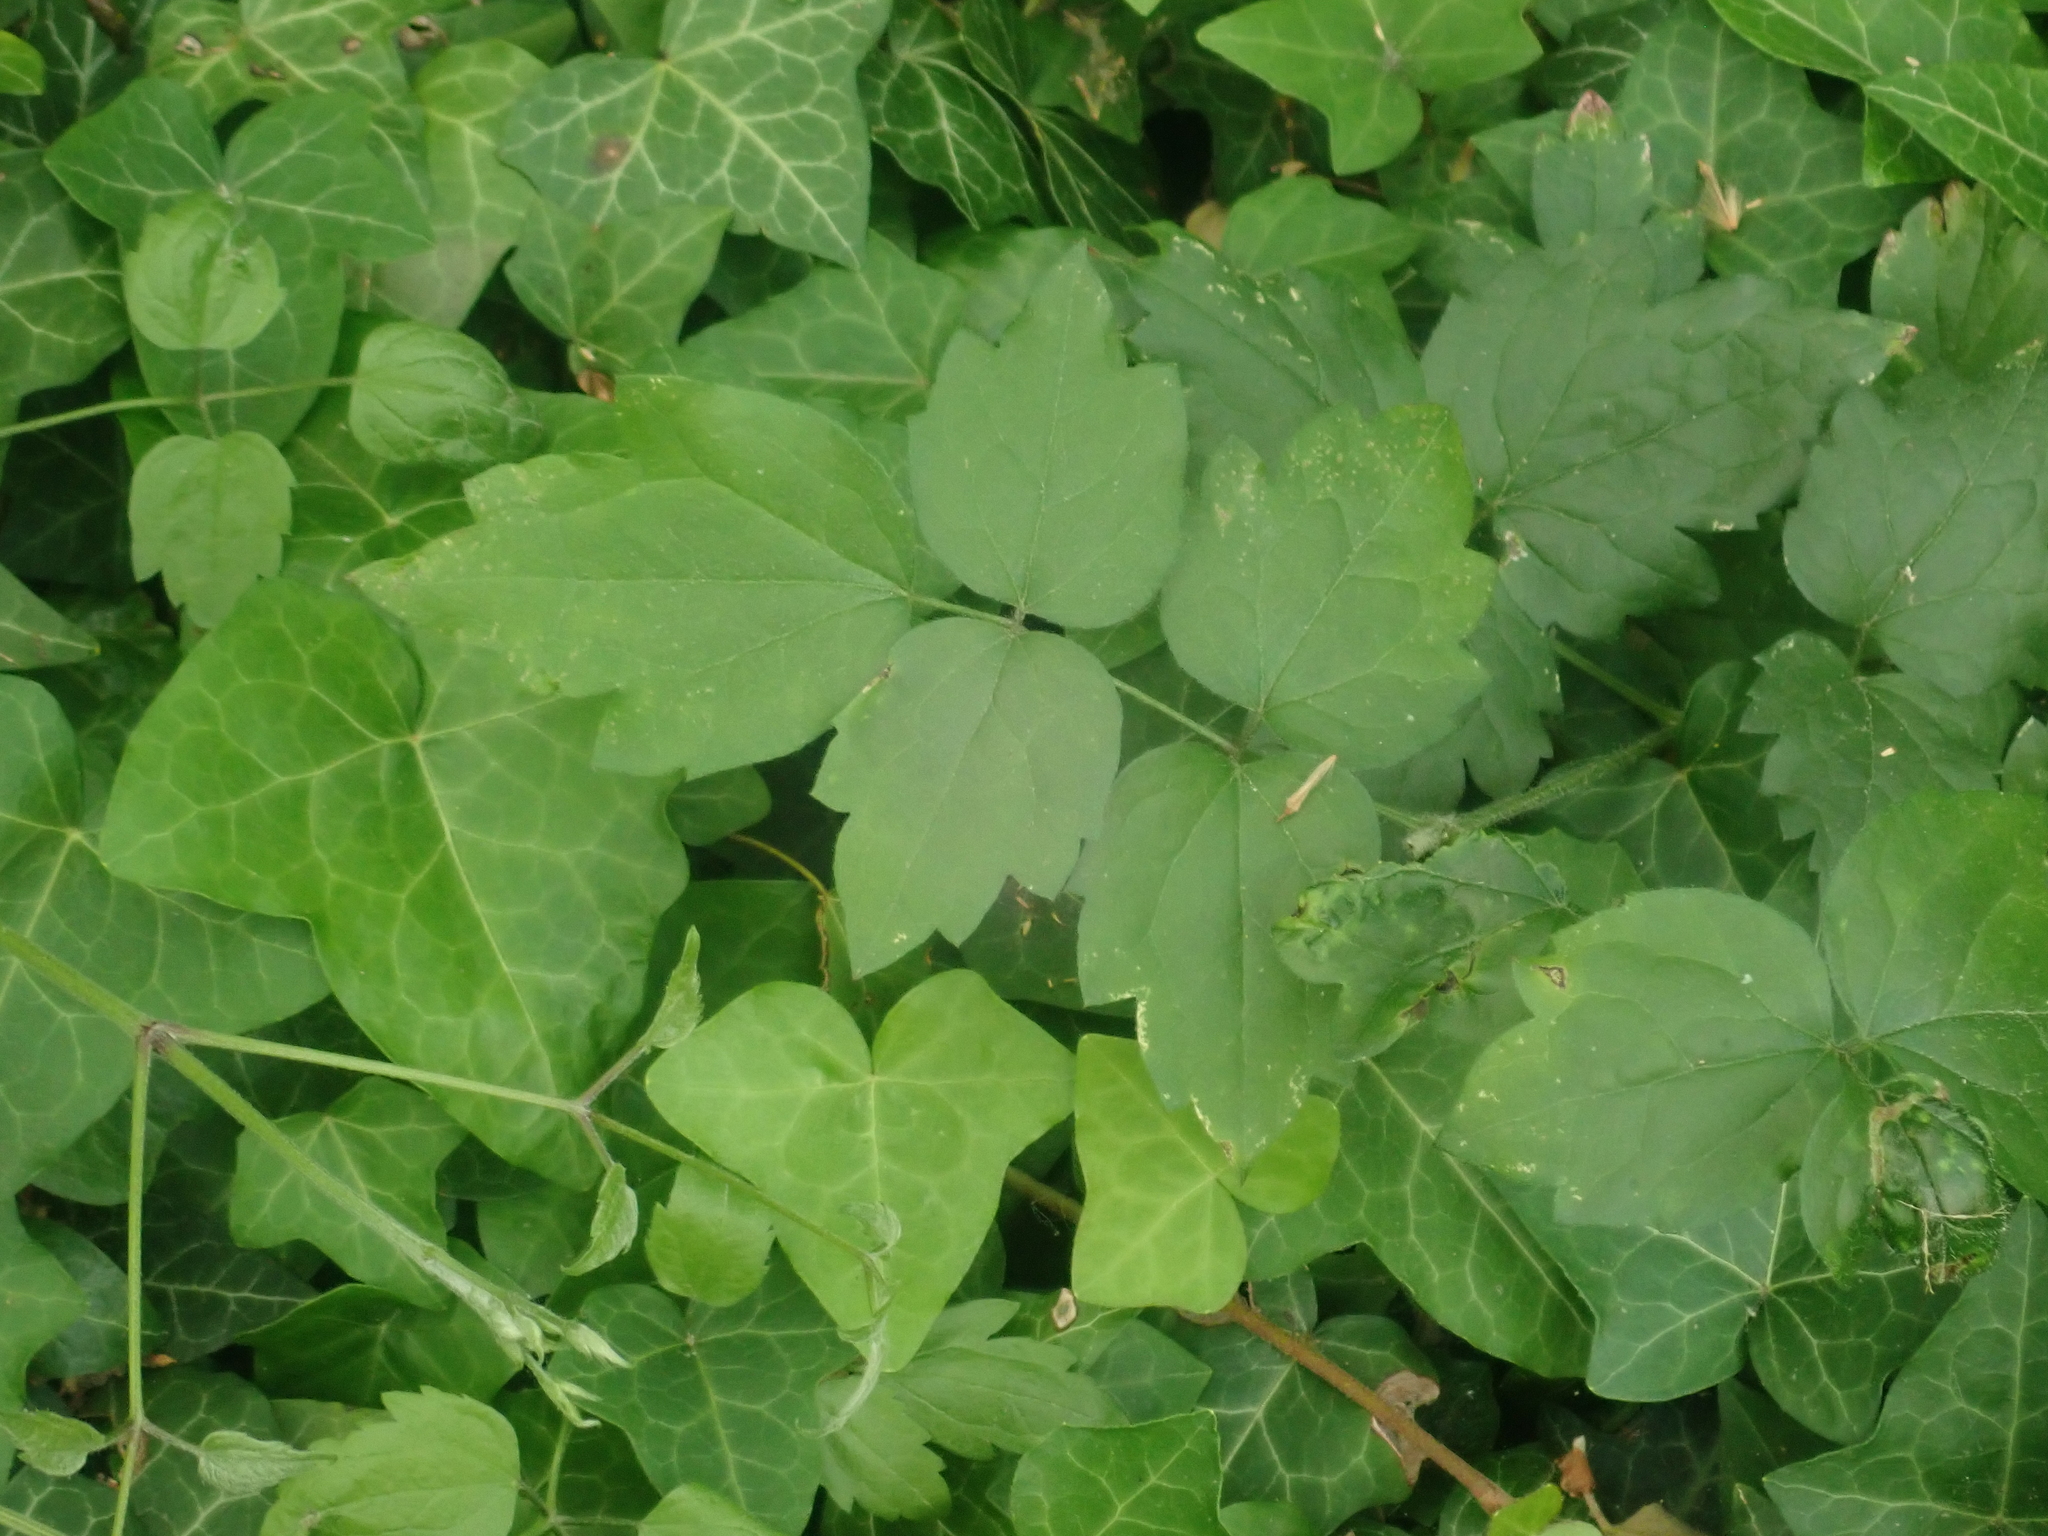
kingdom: Plantae
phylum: Tracheophyta
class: Magnoliopsida
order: Ranunculales
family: Ranunculaceae
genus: Clematis
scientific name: Clematis vitalba
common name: Evergreen clematis
